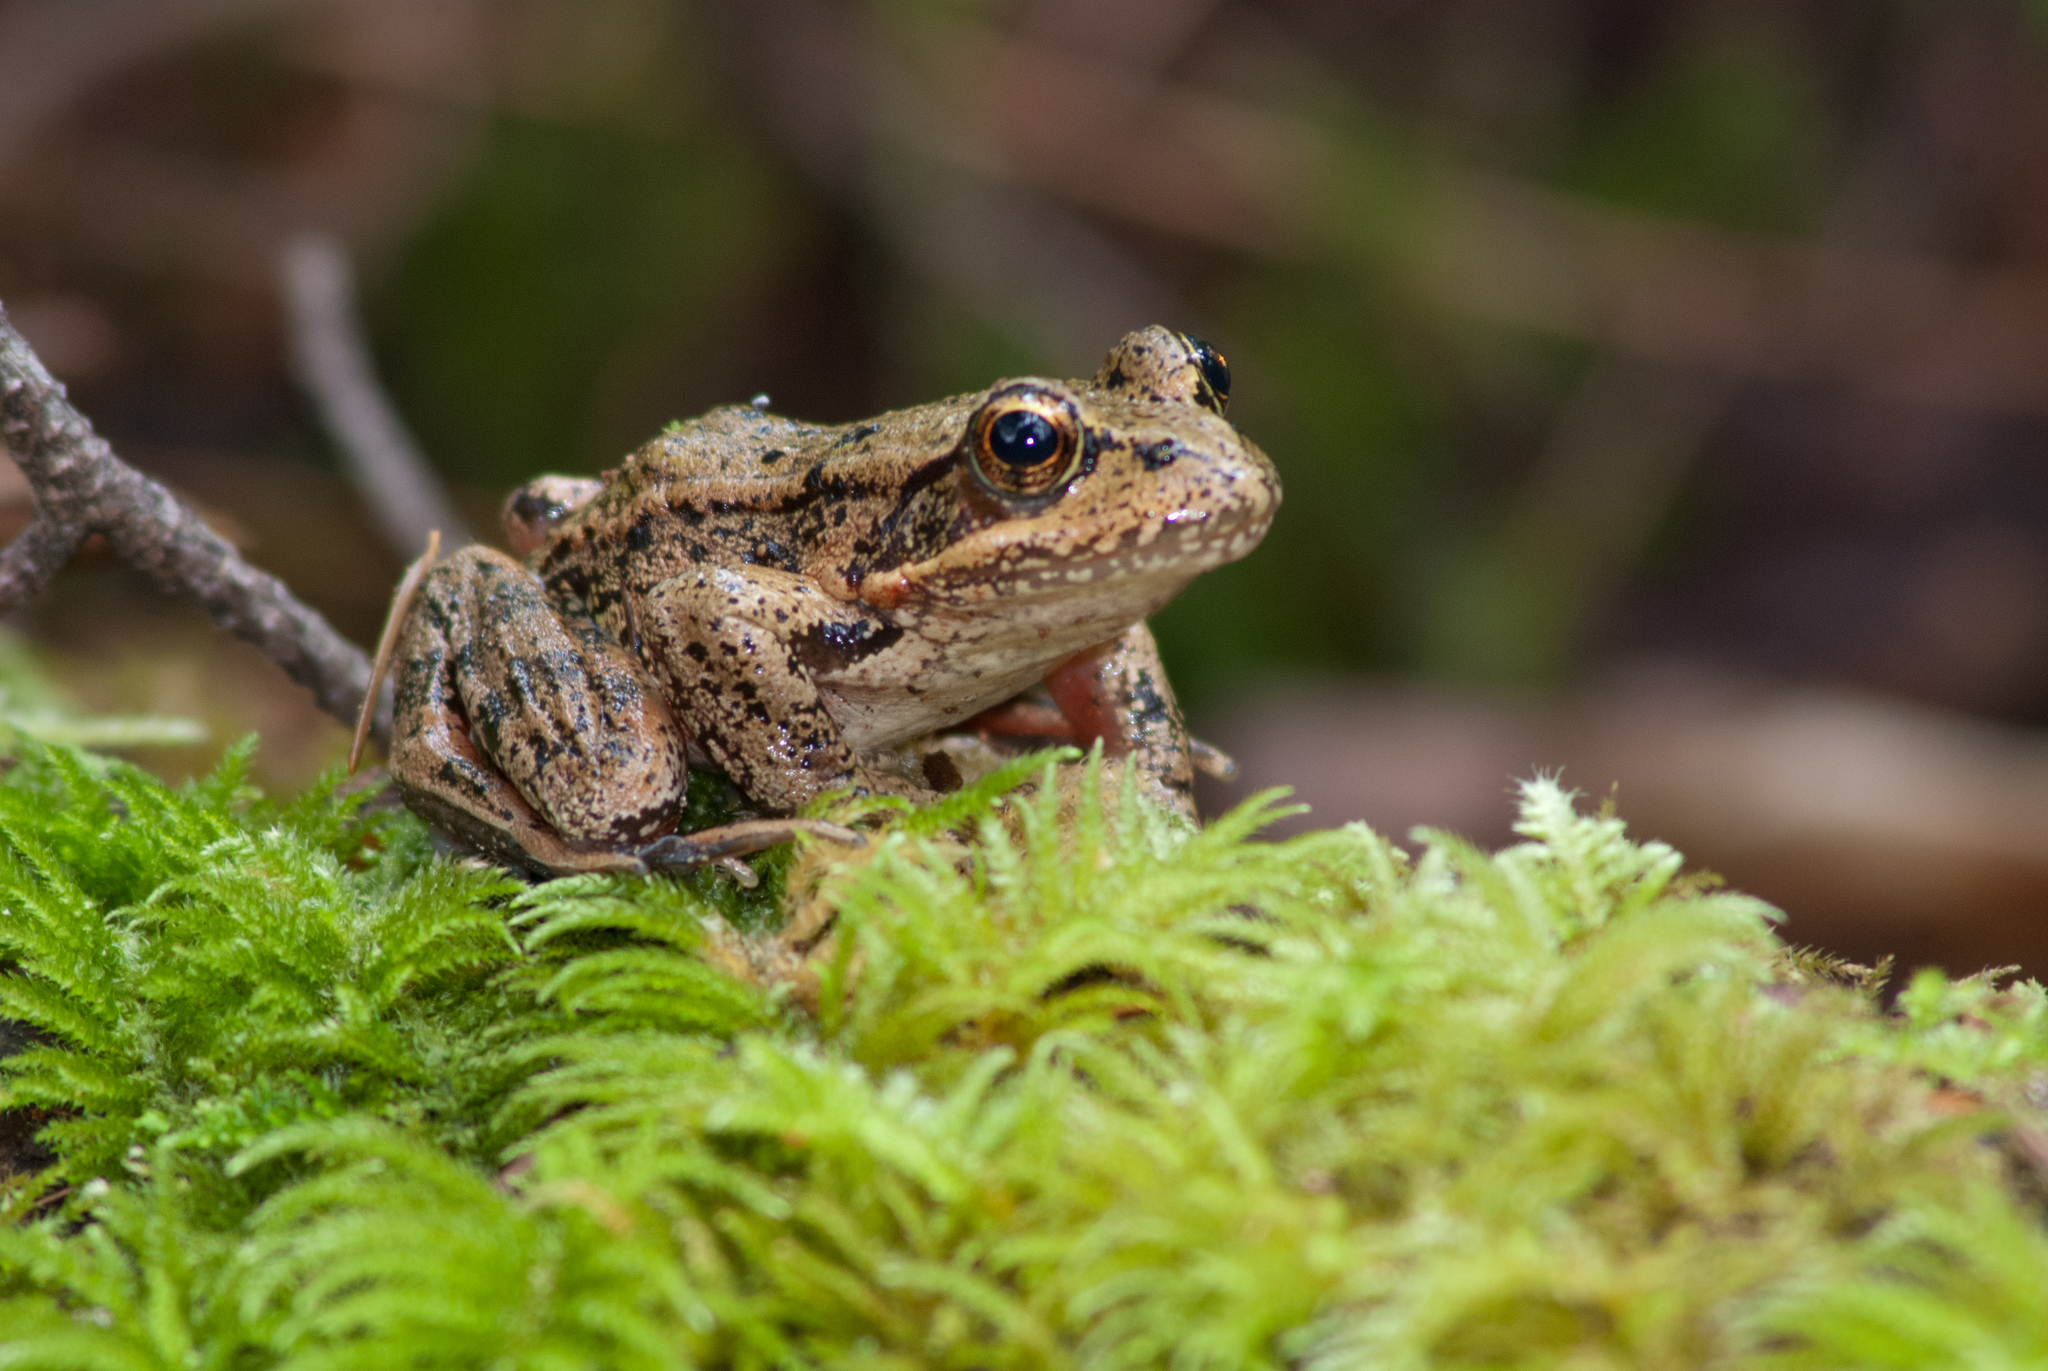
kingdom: Animalia
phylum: Chordata
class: Amphibia
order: Anura
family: Ranidae
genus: Rana
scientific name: Rana aurora
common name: Red-legged frog
